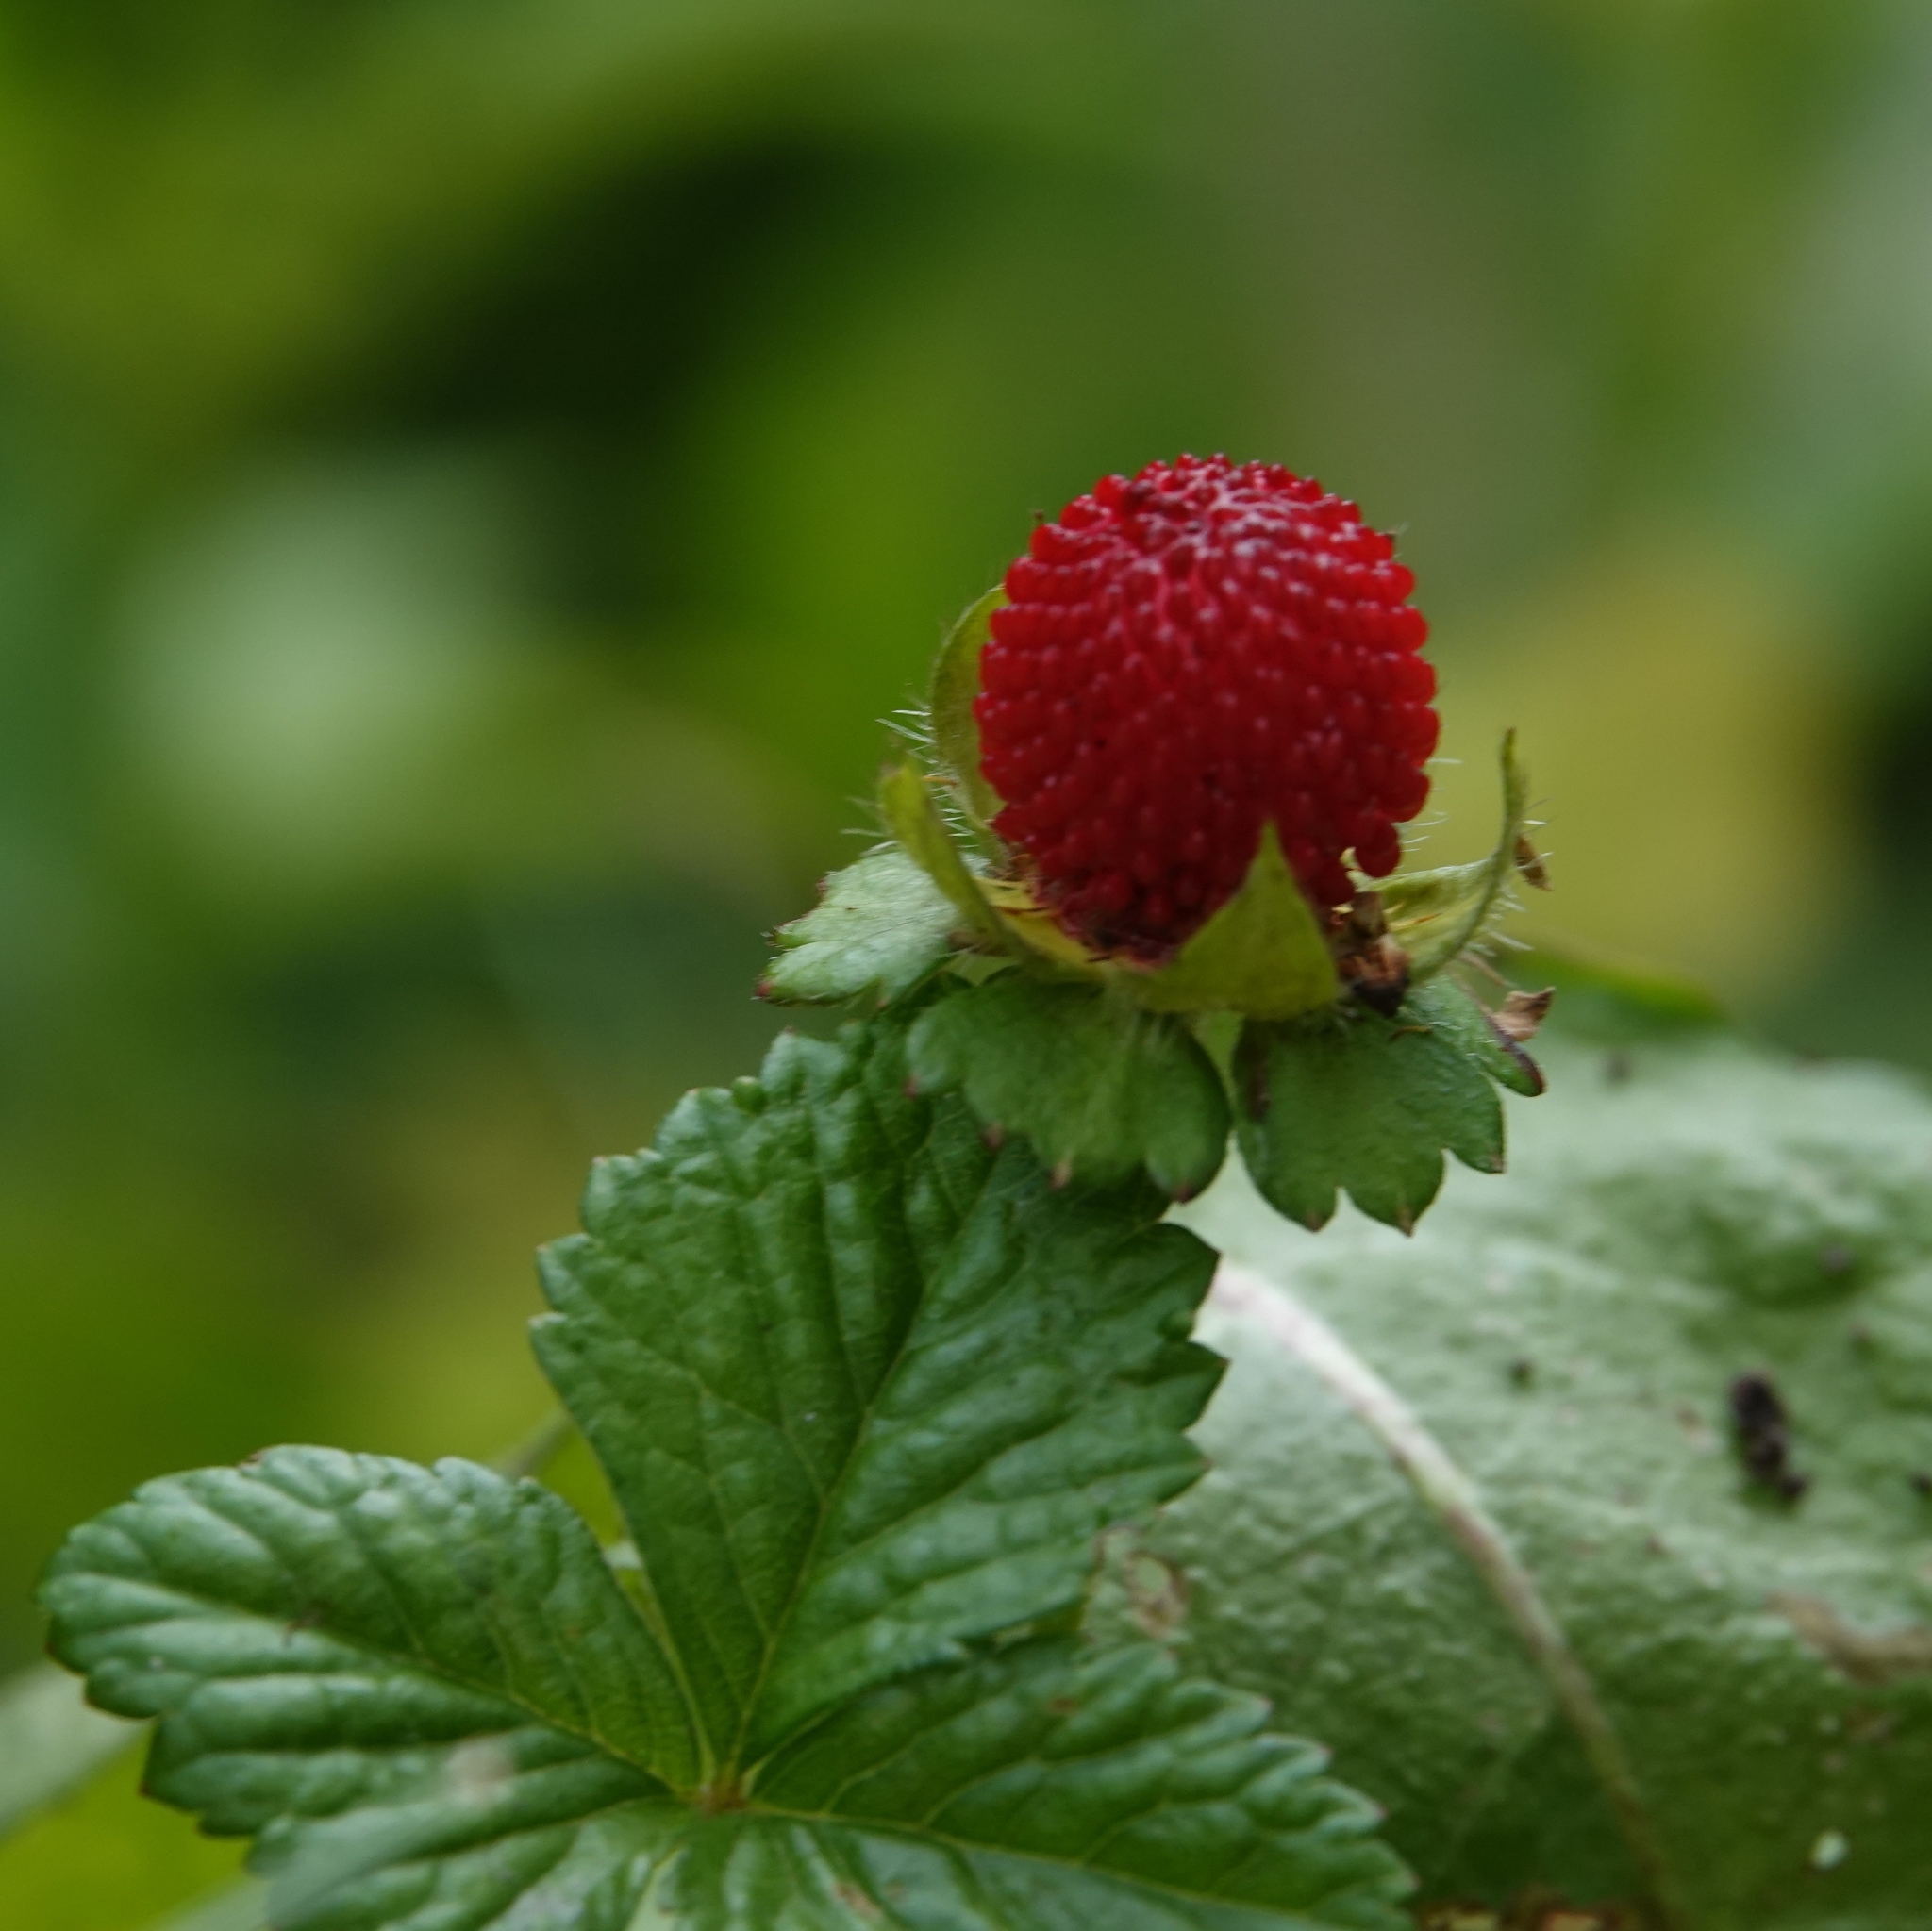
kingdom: Plantae
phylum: Tracheophyta
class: Magnoliopsida
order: Rosales
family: Rosaceae
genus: Potentilla
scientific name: Potentilla indica
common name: Yellow-flowered strawberry
